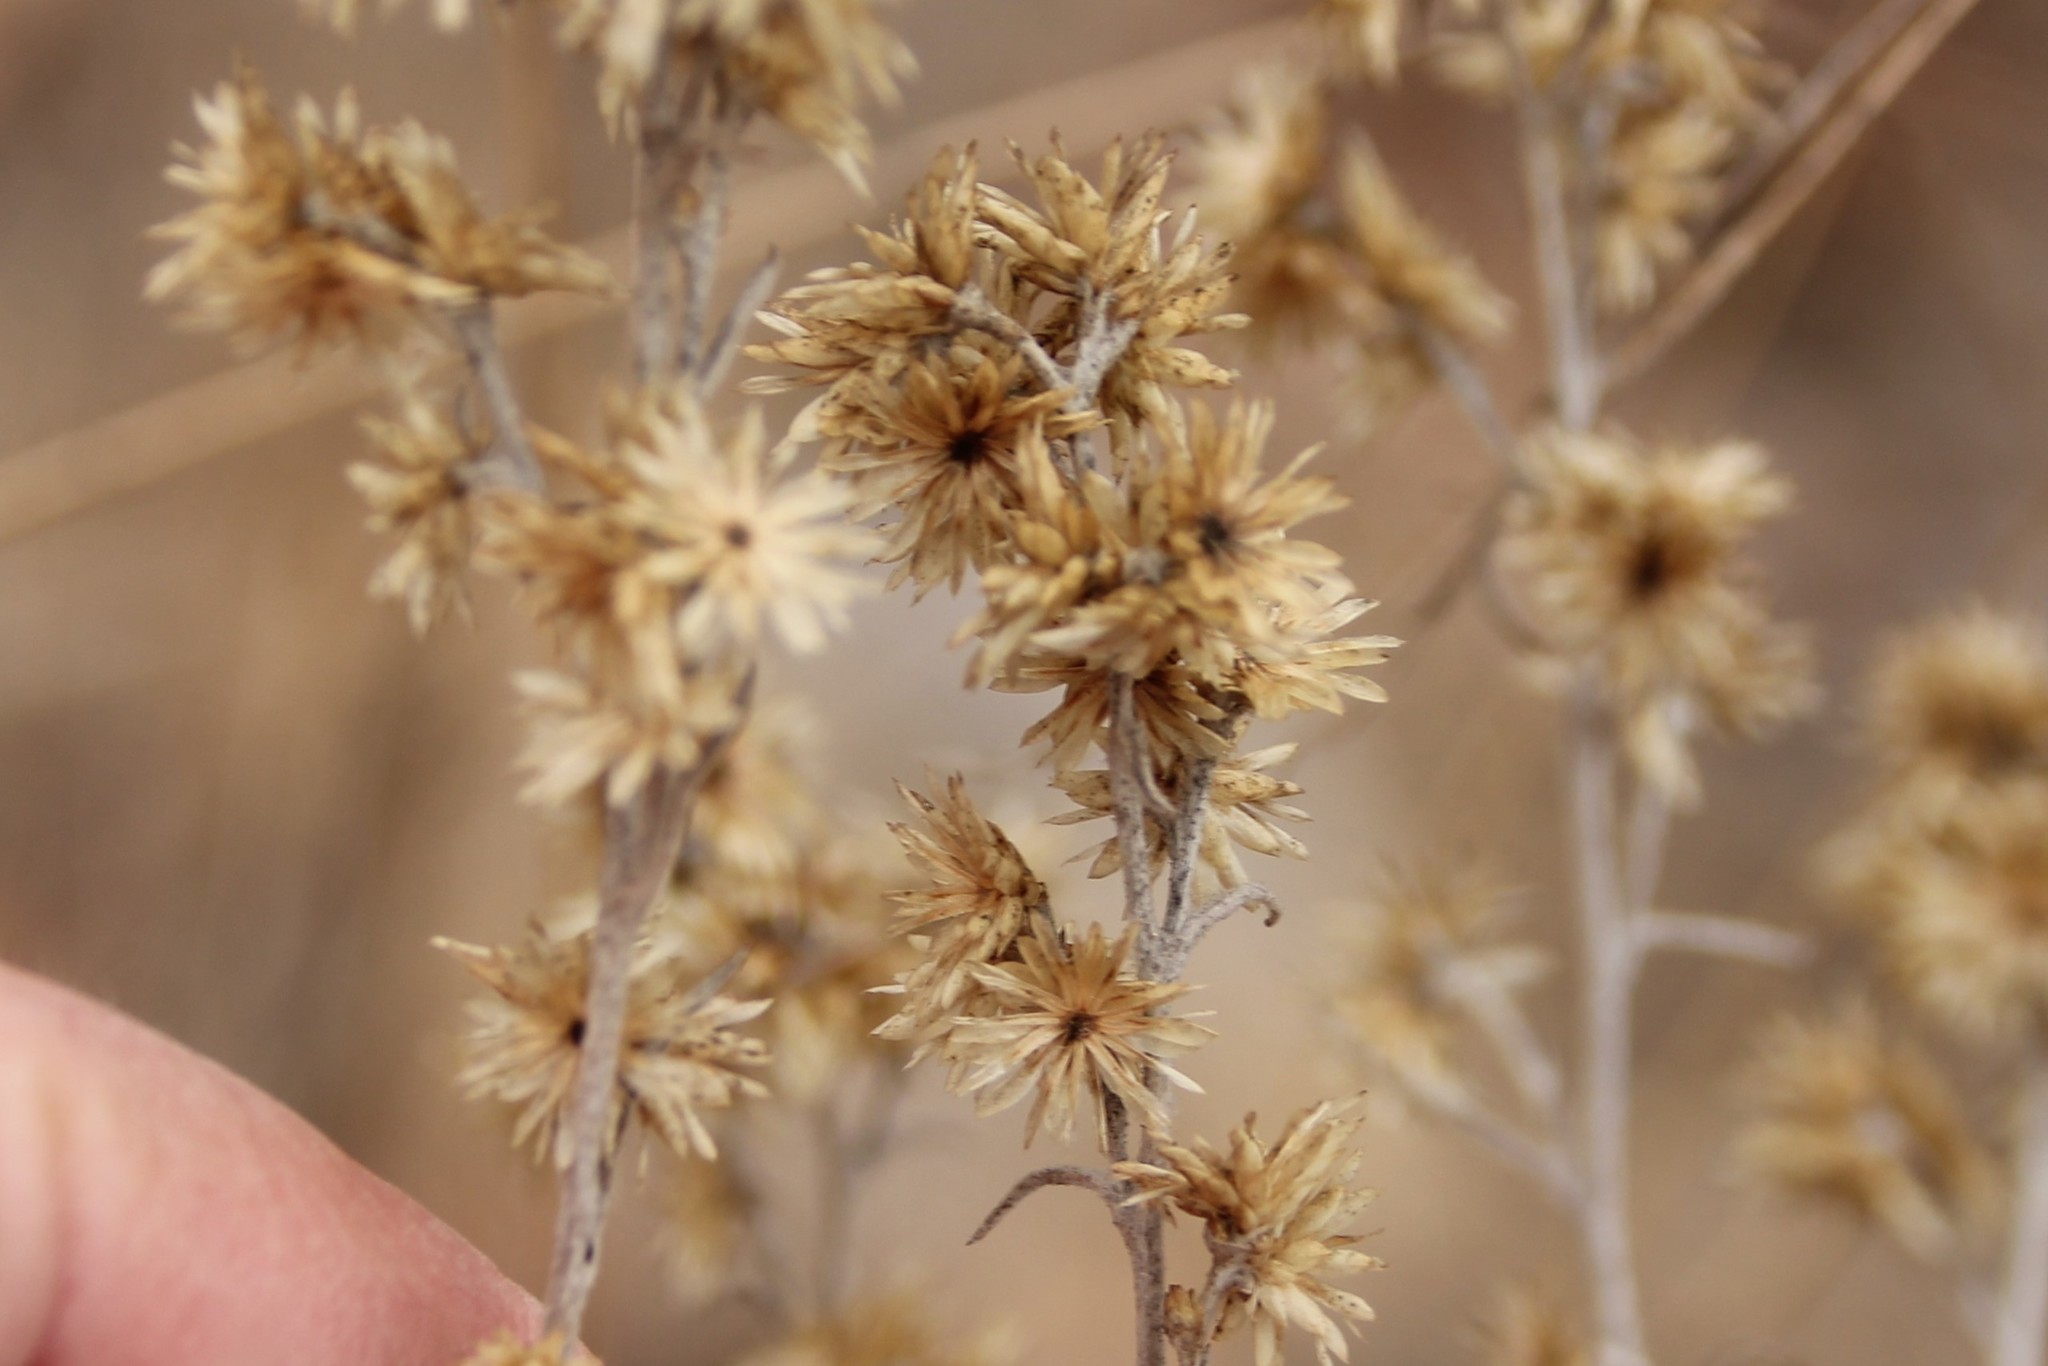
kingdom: Plantae
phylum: Tracheophyta
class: Magnoliopsida
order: Asterales
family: Asteraceae
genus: Pseudognaphalium
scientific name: Pseudognaphalium beneolens
